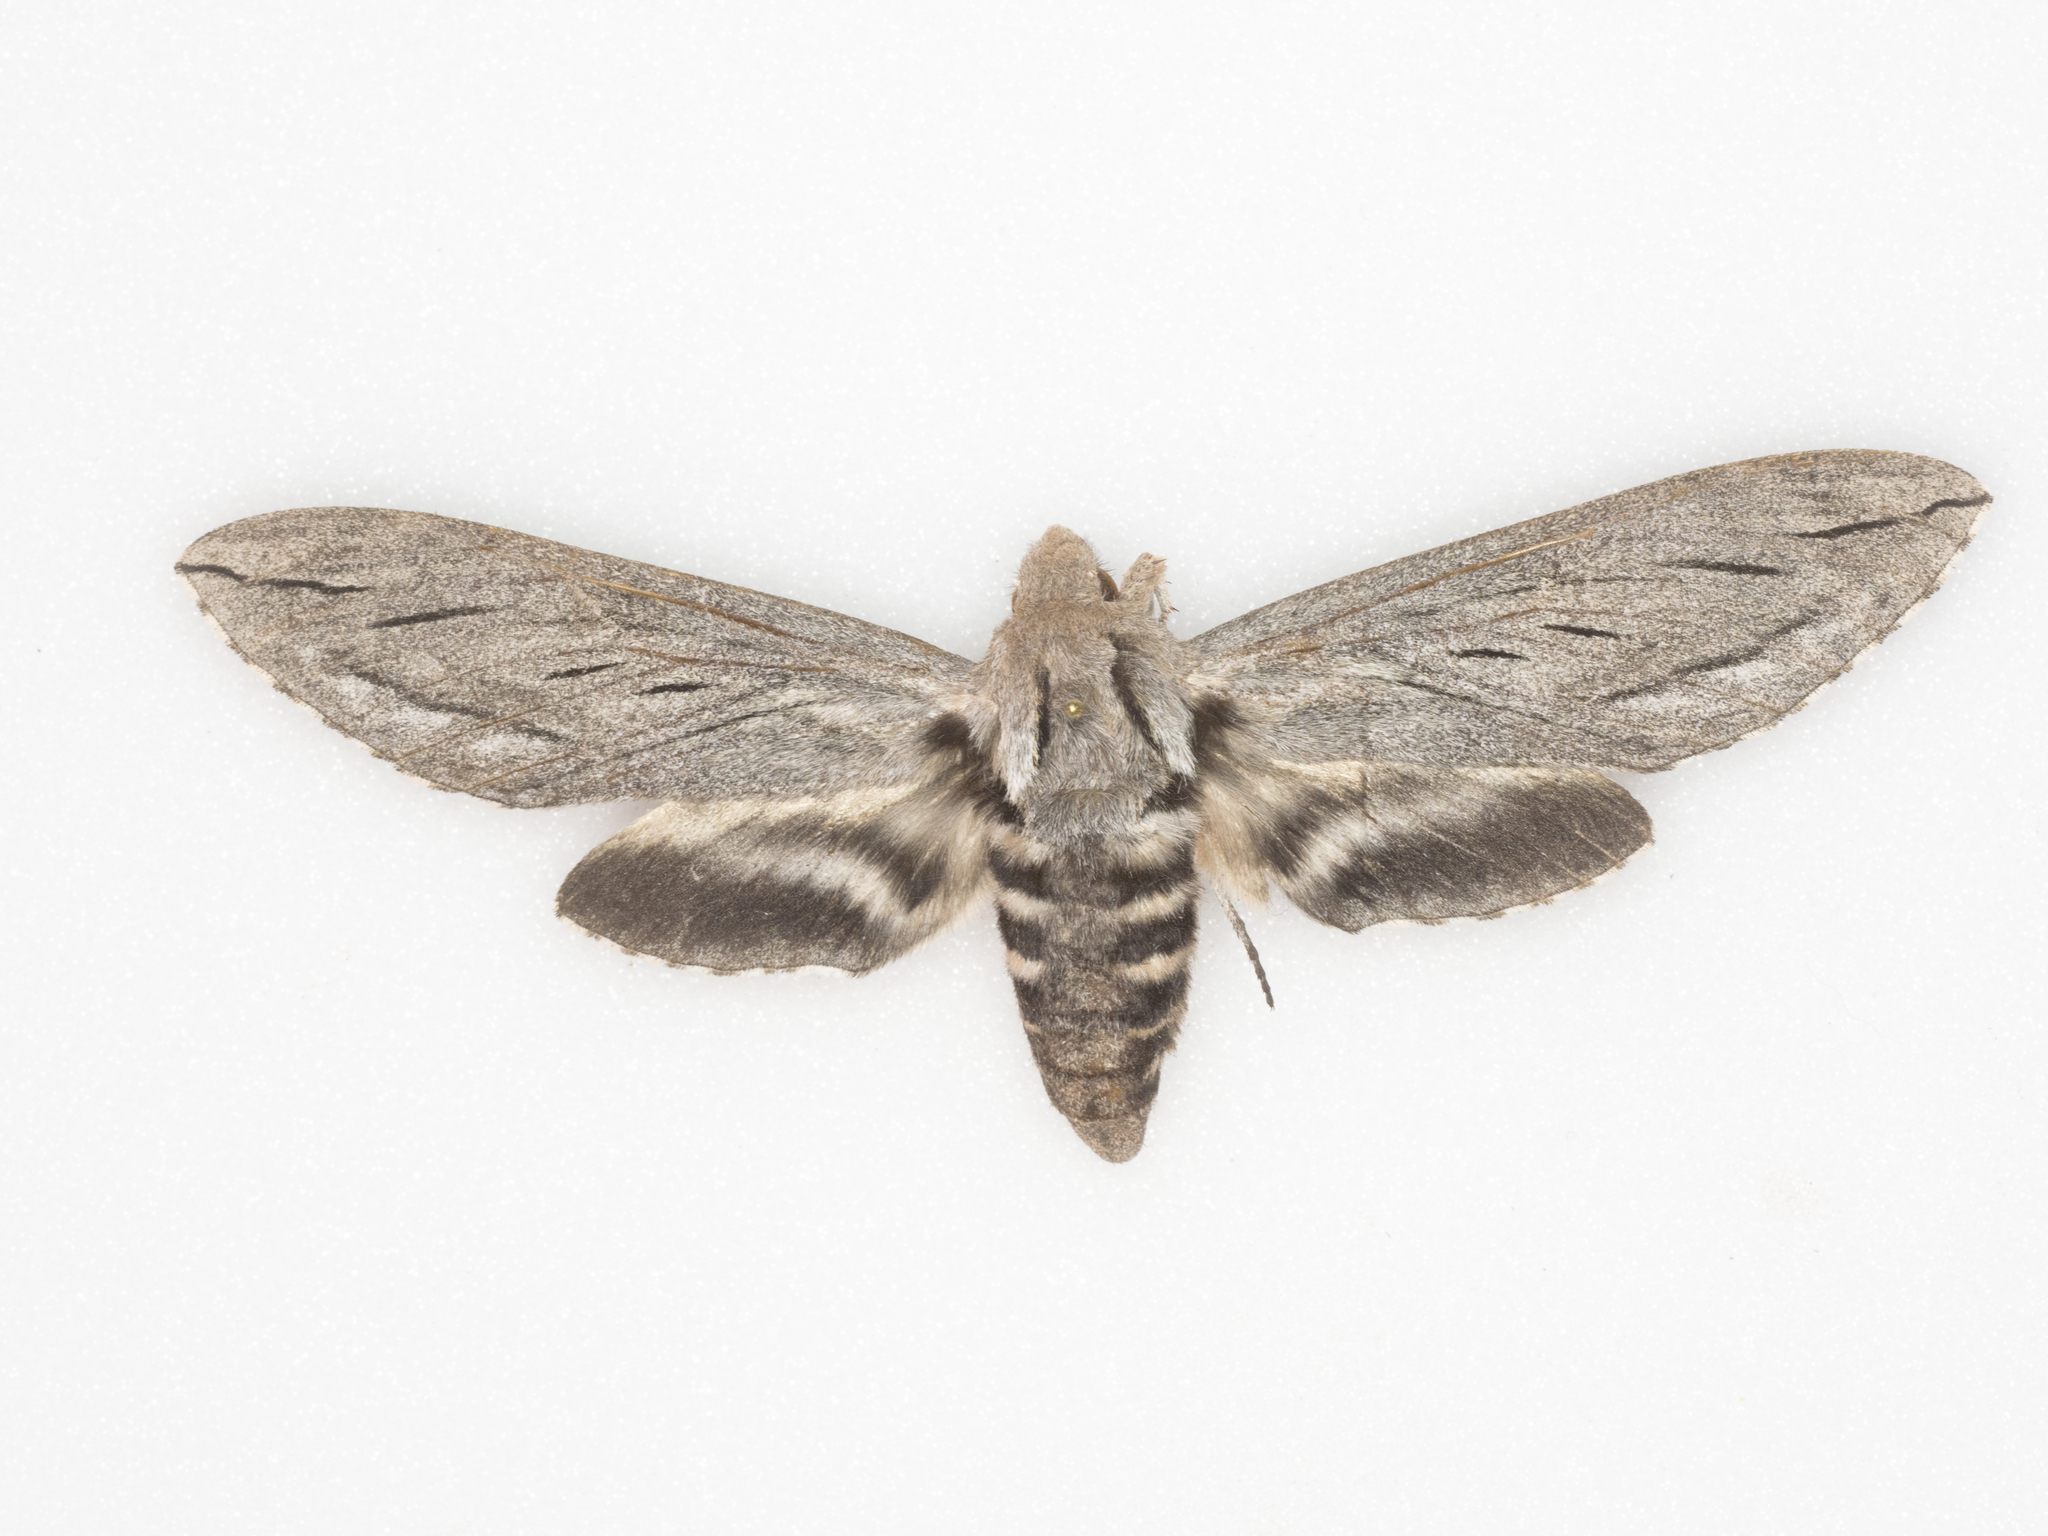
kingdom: Animalia
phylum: Arthropoda
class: Insecta
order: Lepidoptera
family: Sphingidae
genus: Sphinx
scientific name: Sphinx chersis
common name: Great ash sphinx
